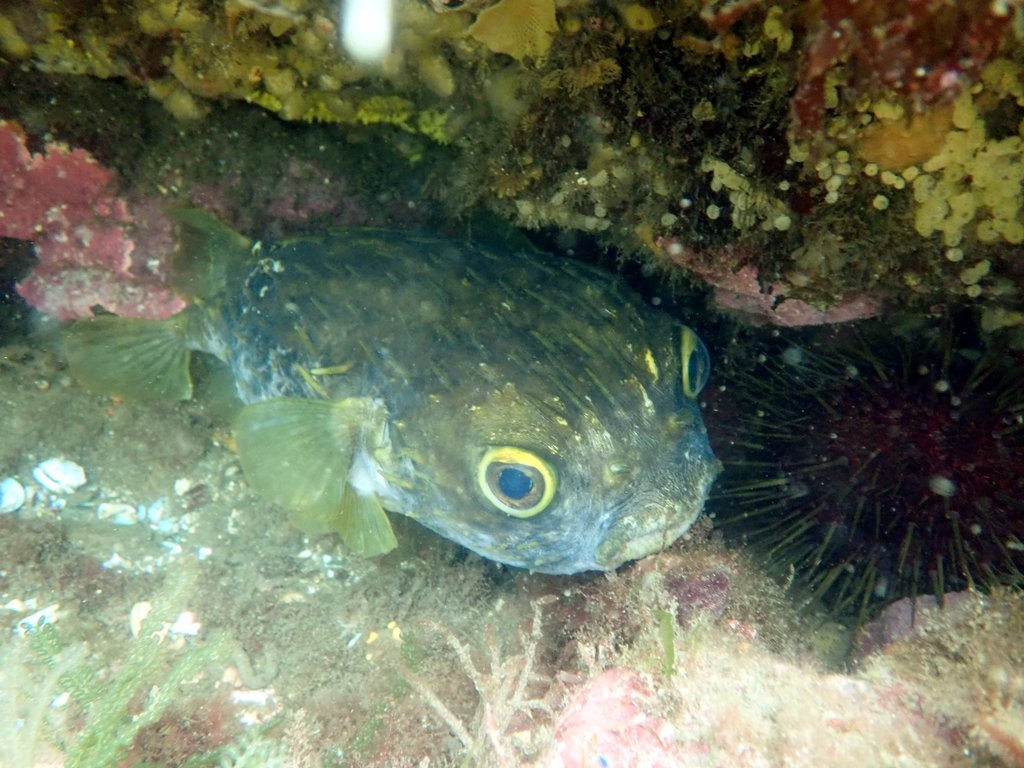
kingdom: Animalia
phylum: Chordata
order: Tetraodontiformes
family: Diodontidae
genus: Diodon
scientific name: Diodon nicthemerus
